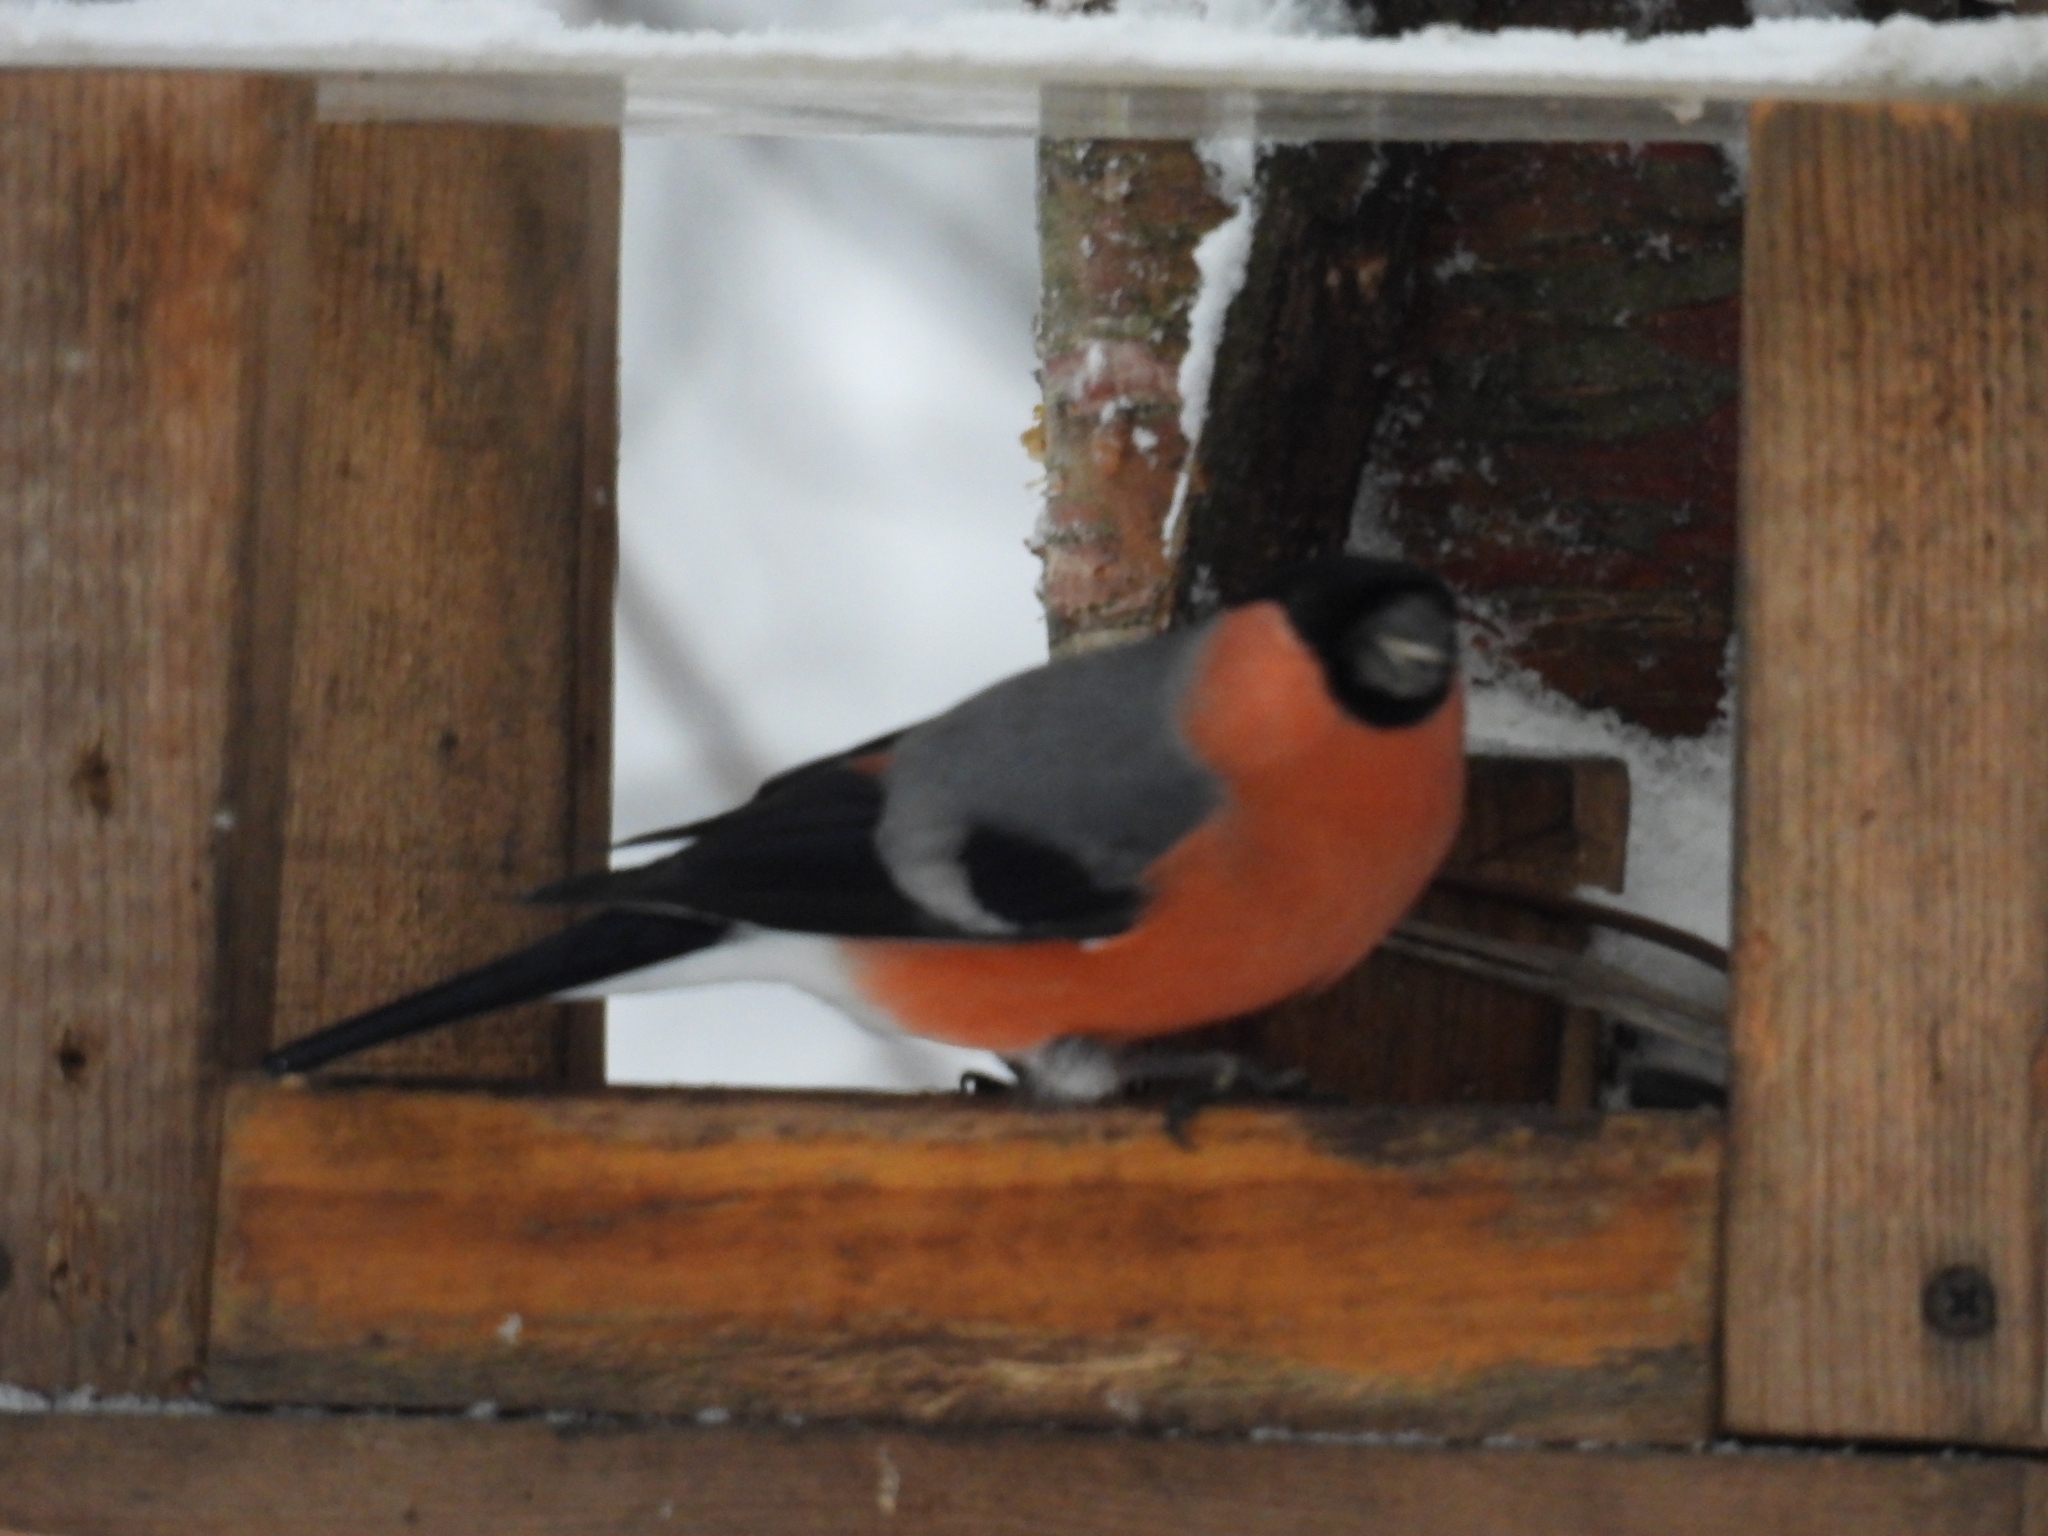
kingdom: Animalia
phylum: Chordata
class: Aves
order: Passeriformes
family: Fringillidae
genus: Pyrrhula
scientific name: Pyrrhula pyrrhula
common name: Eurasian bullfinch
